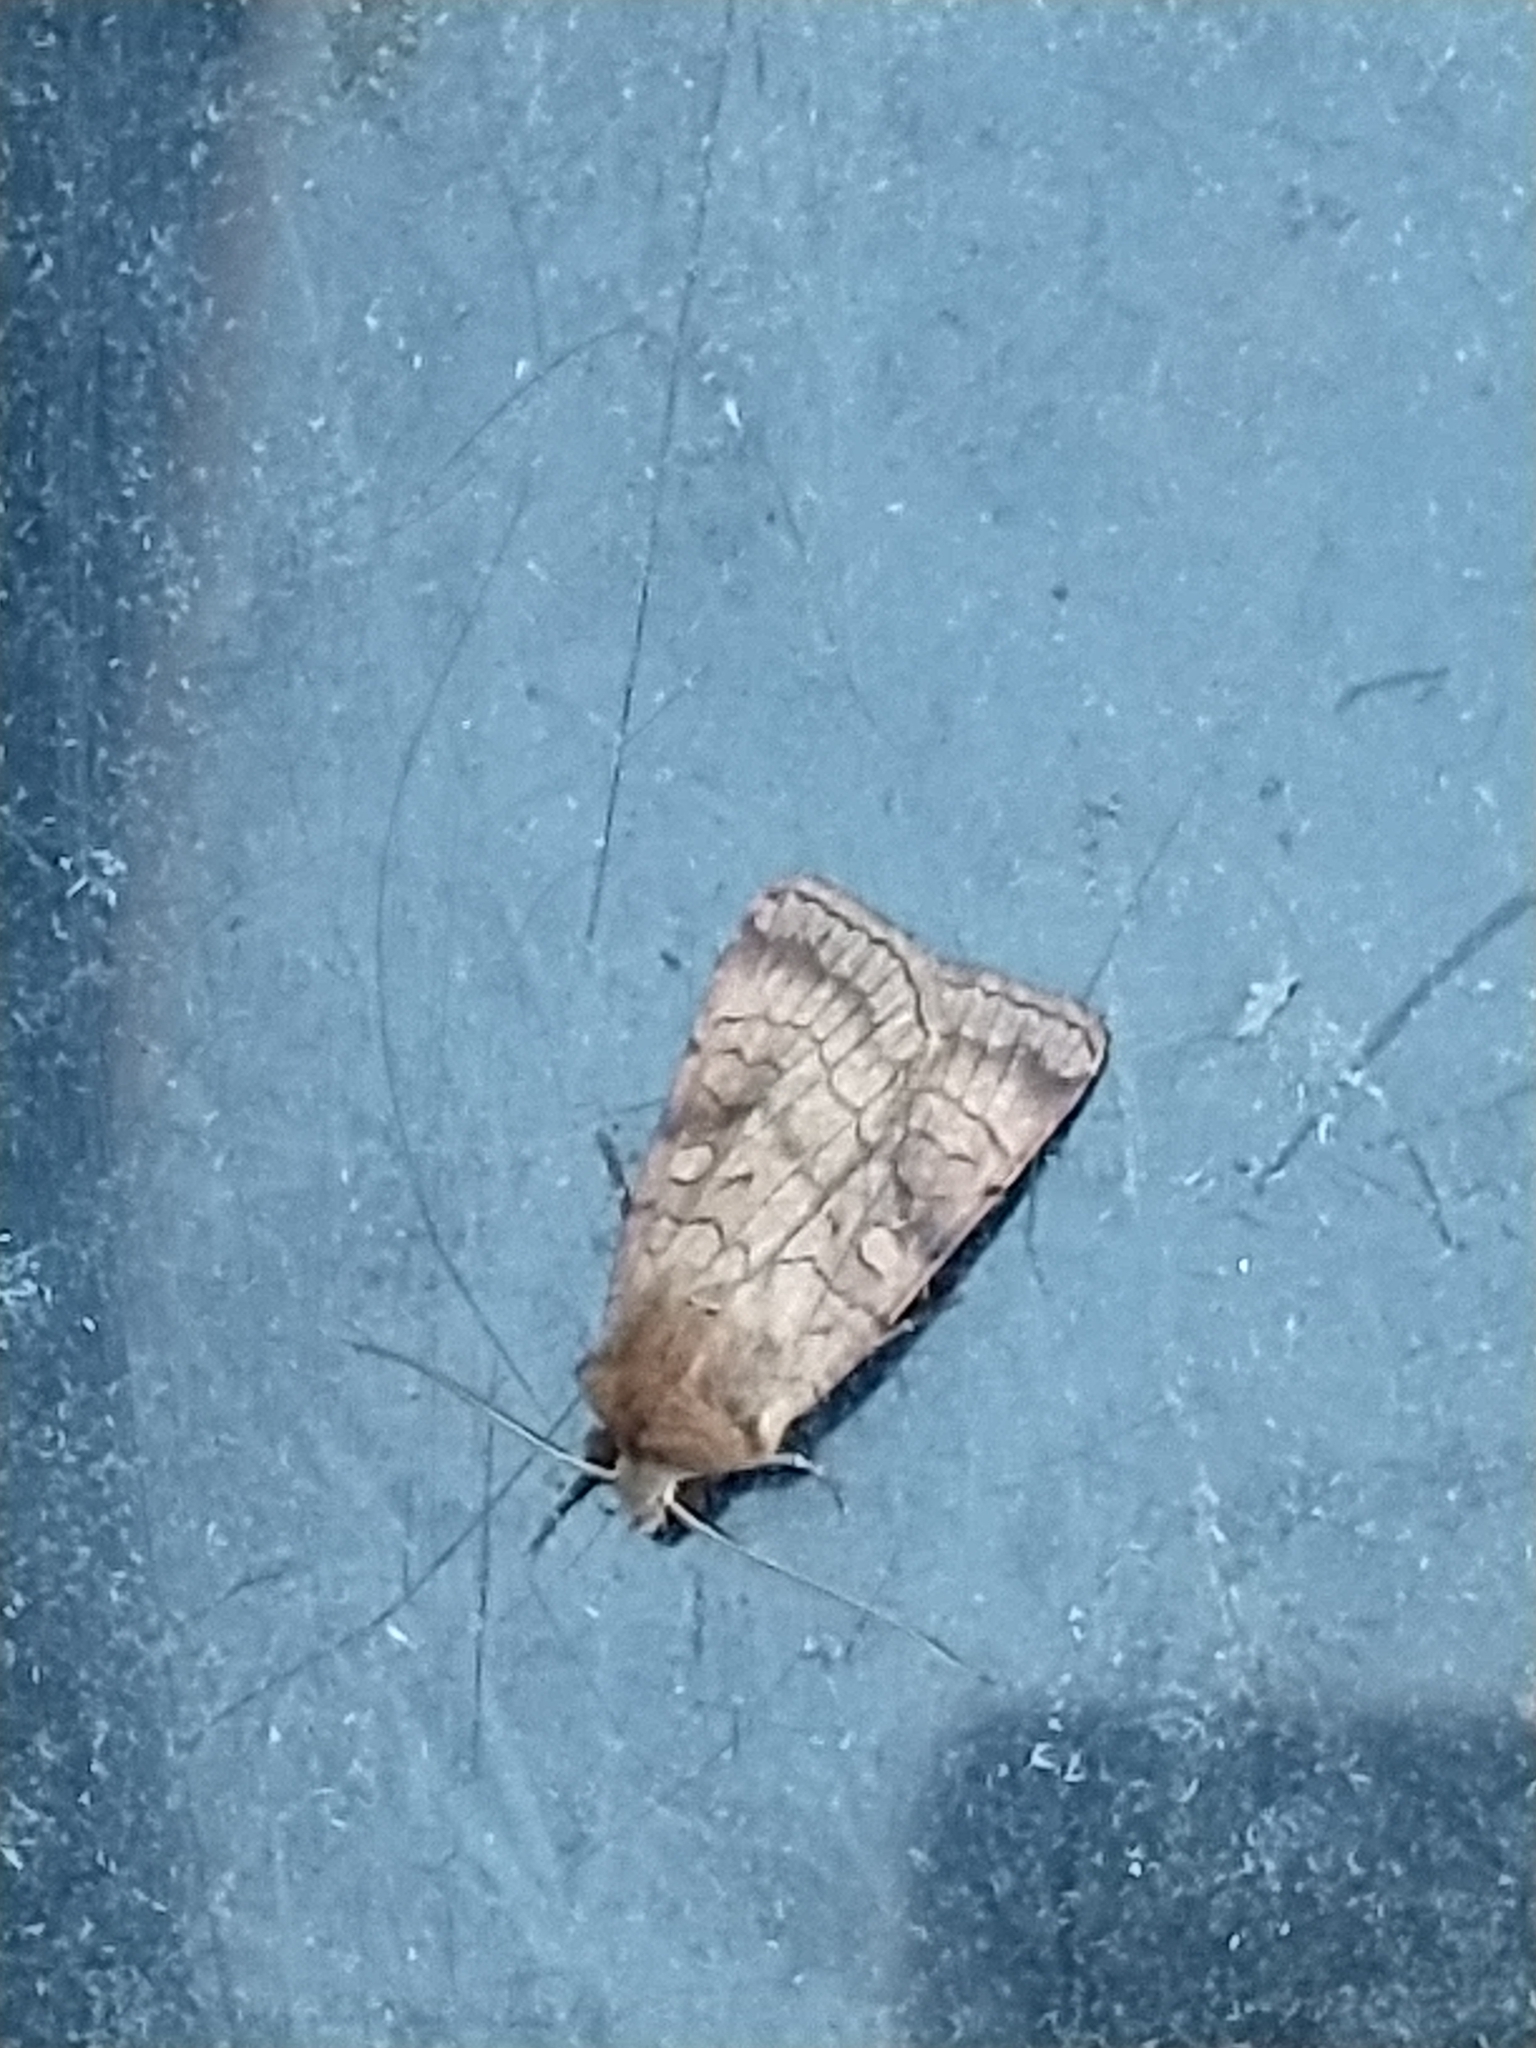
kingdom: Animalia
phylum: Arthropoda
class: Insecta
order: Lepidoptera
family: Noctuidae
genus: Xestia
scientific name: Xestia sexstrigata
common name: Six-striped rustic
